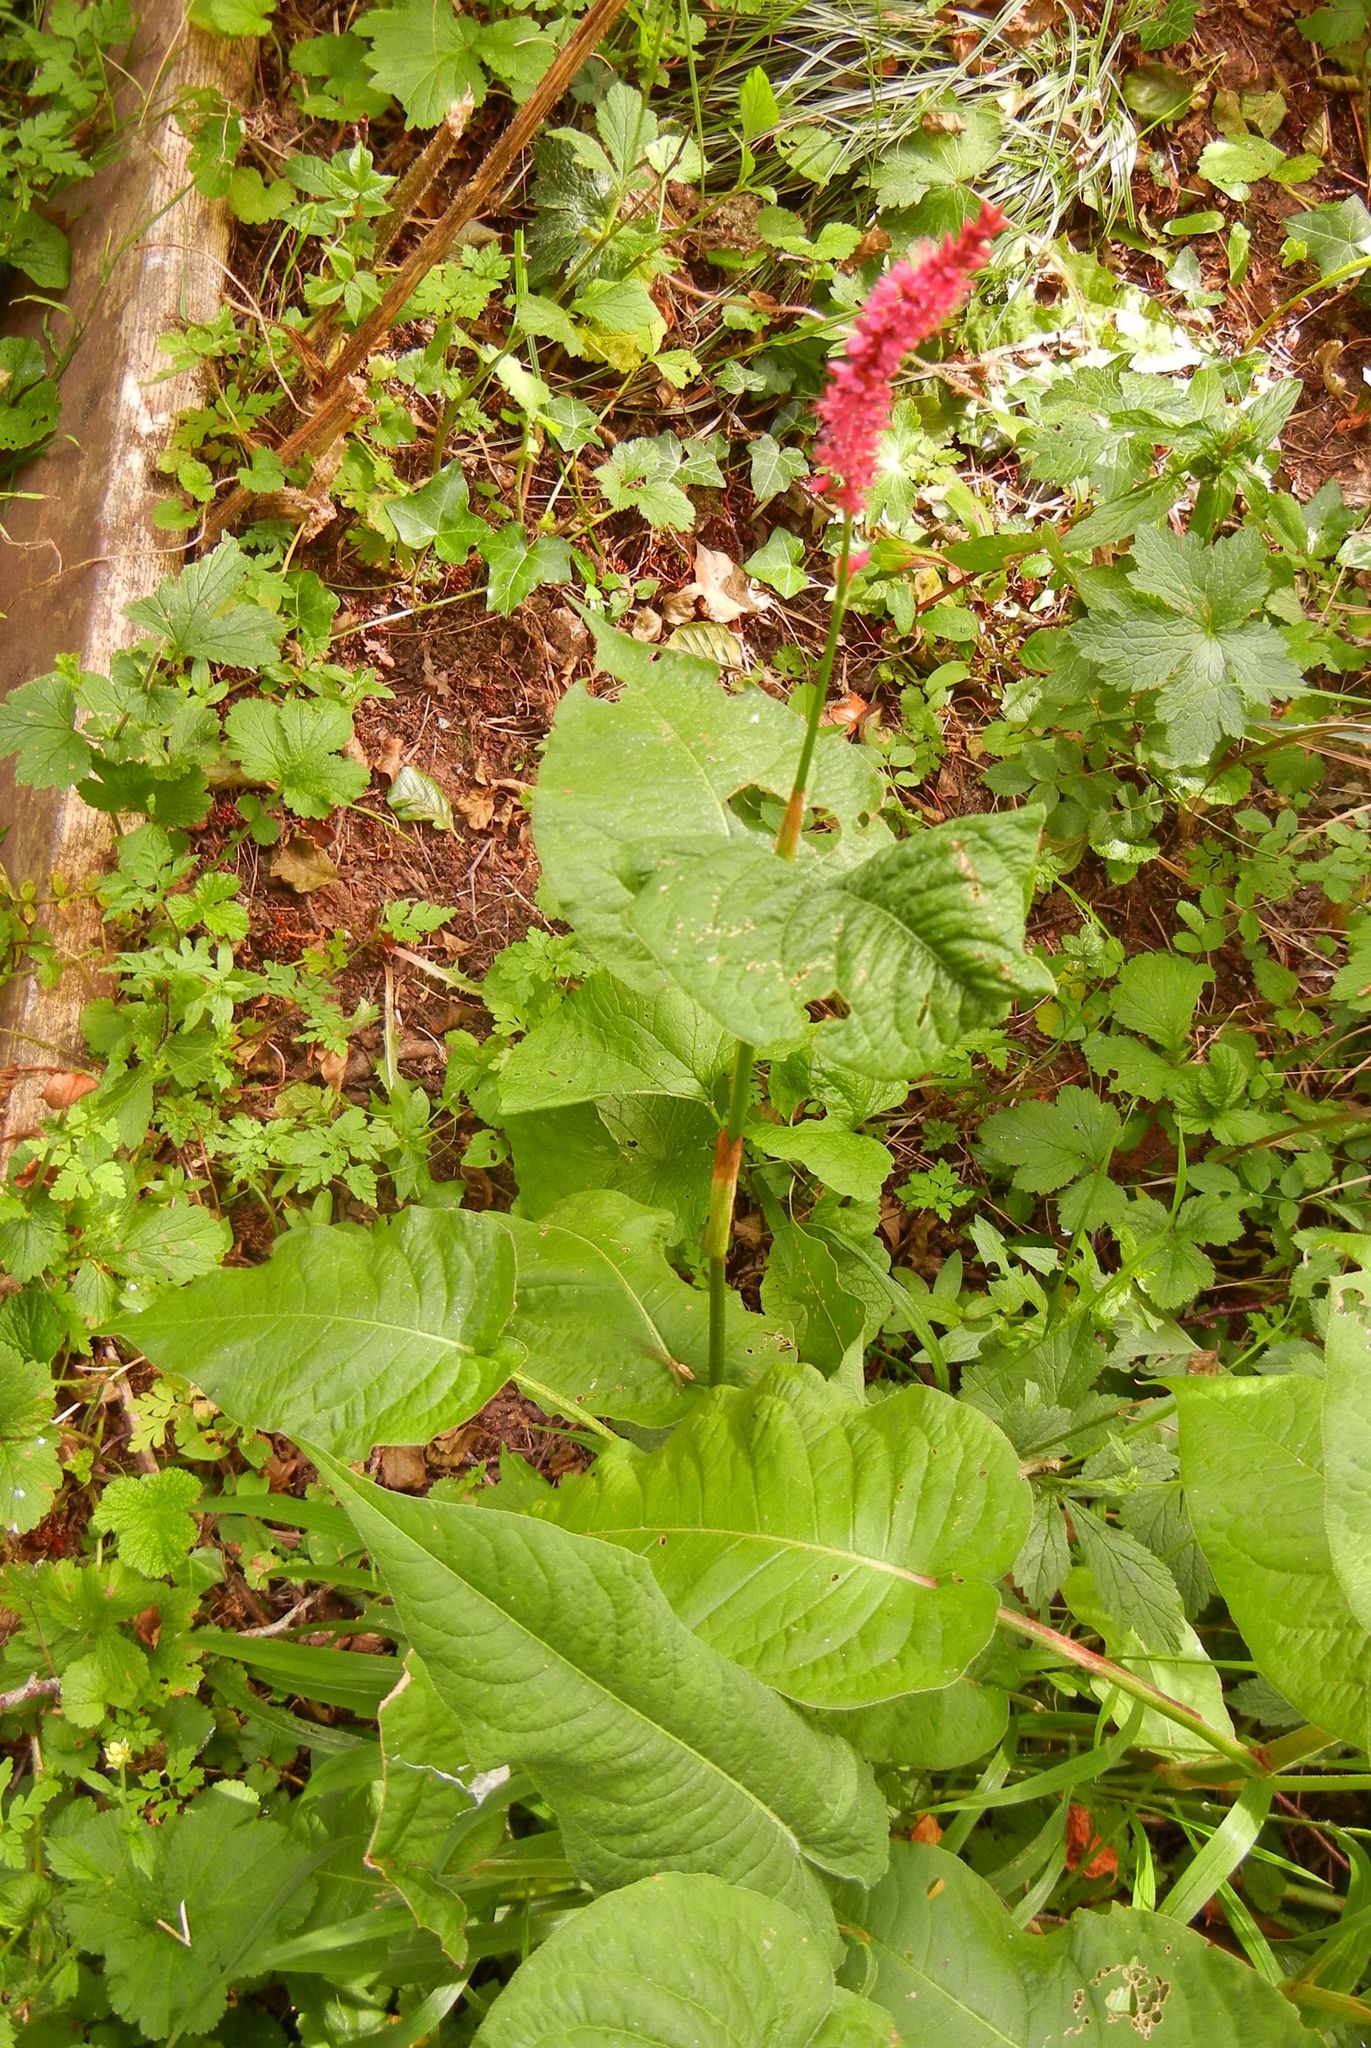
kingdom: Plantae
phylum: Tracheophyta
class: Magnoliopsida
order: Caryophyllales
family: Polygonaceae
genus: Bistorta
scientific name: Bistorta amplexicaulis
